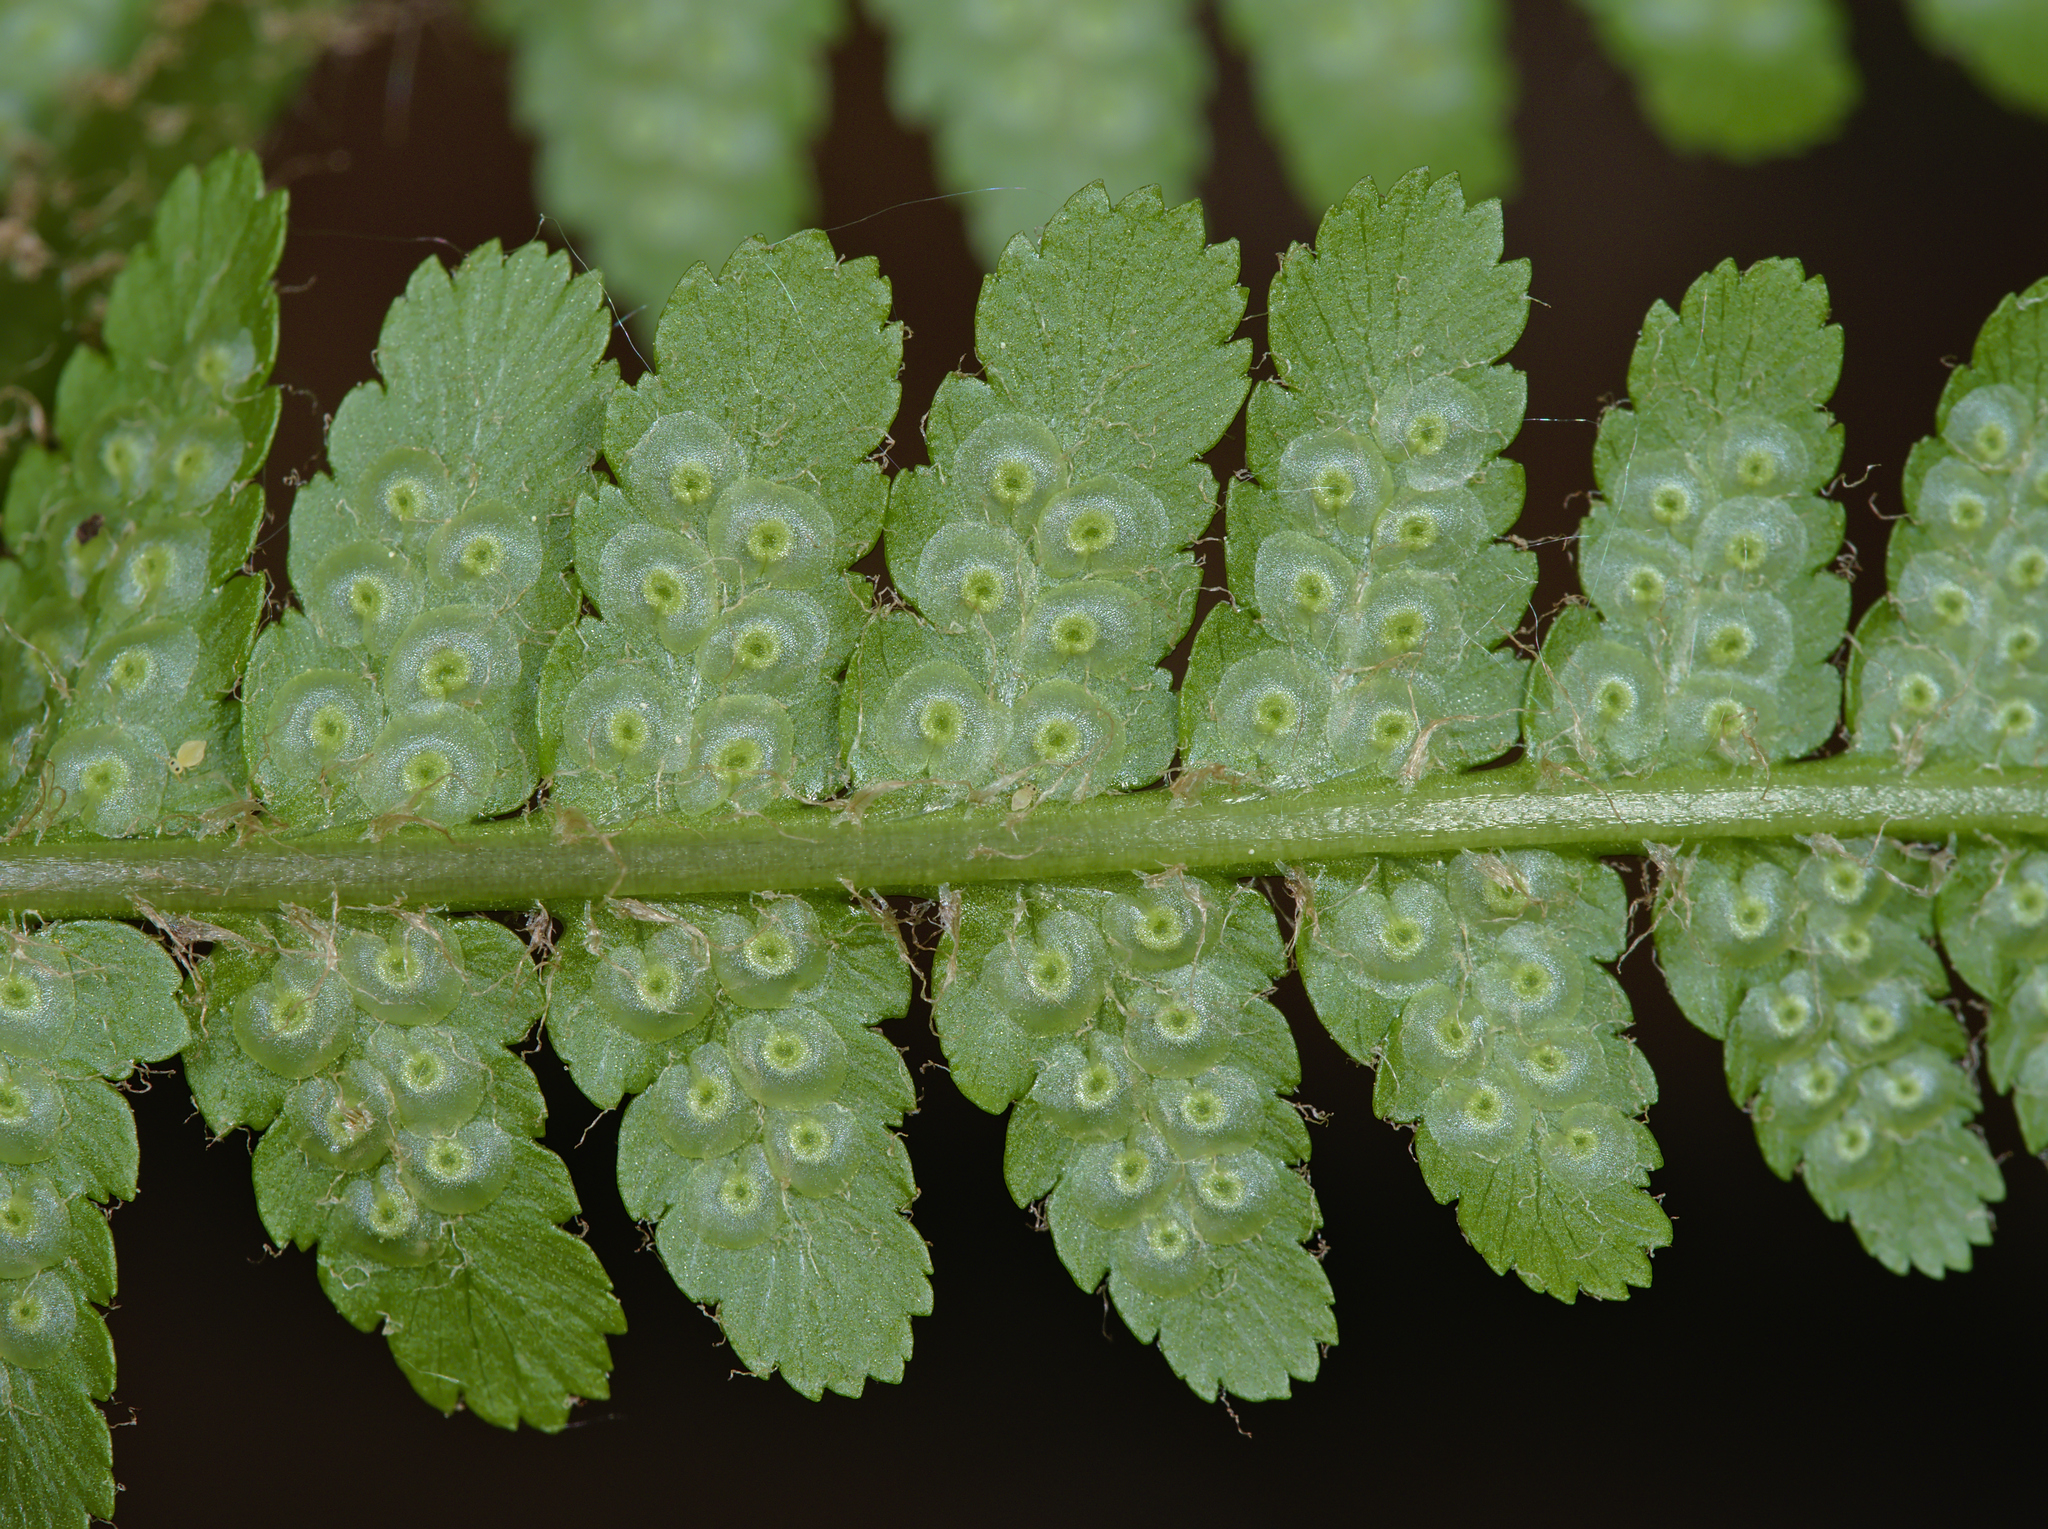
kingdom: Plantae
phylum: Tracheophyta
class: Polypodiopsida
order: Polypodiales
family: Dryopteridaceae
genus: Dryopteris
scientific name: Dryopteris filix-mas
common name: Male fern
